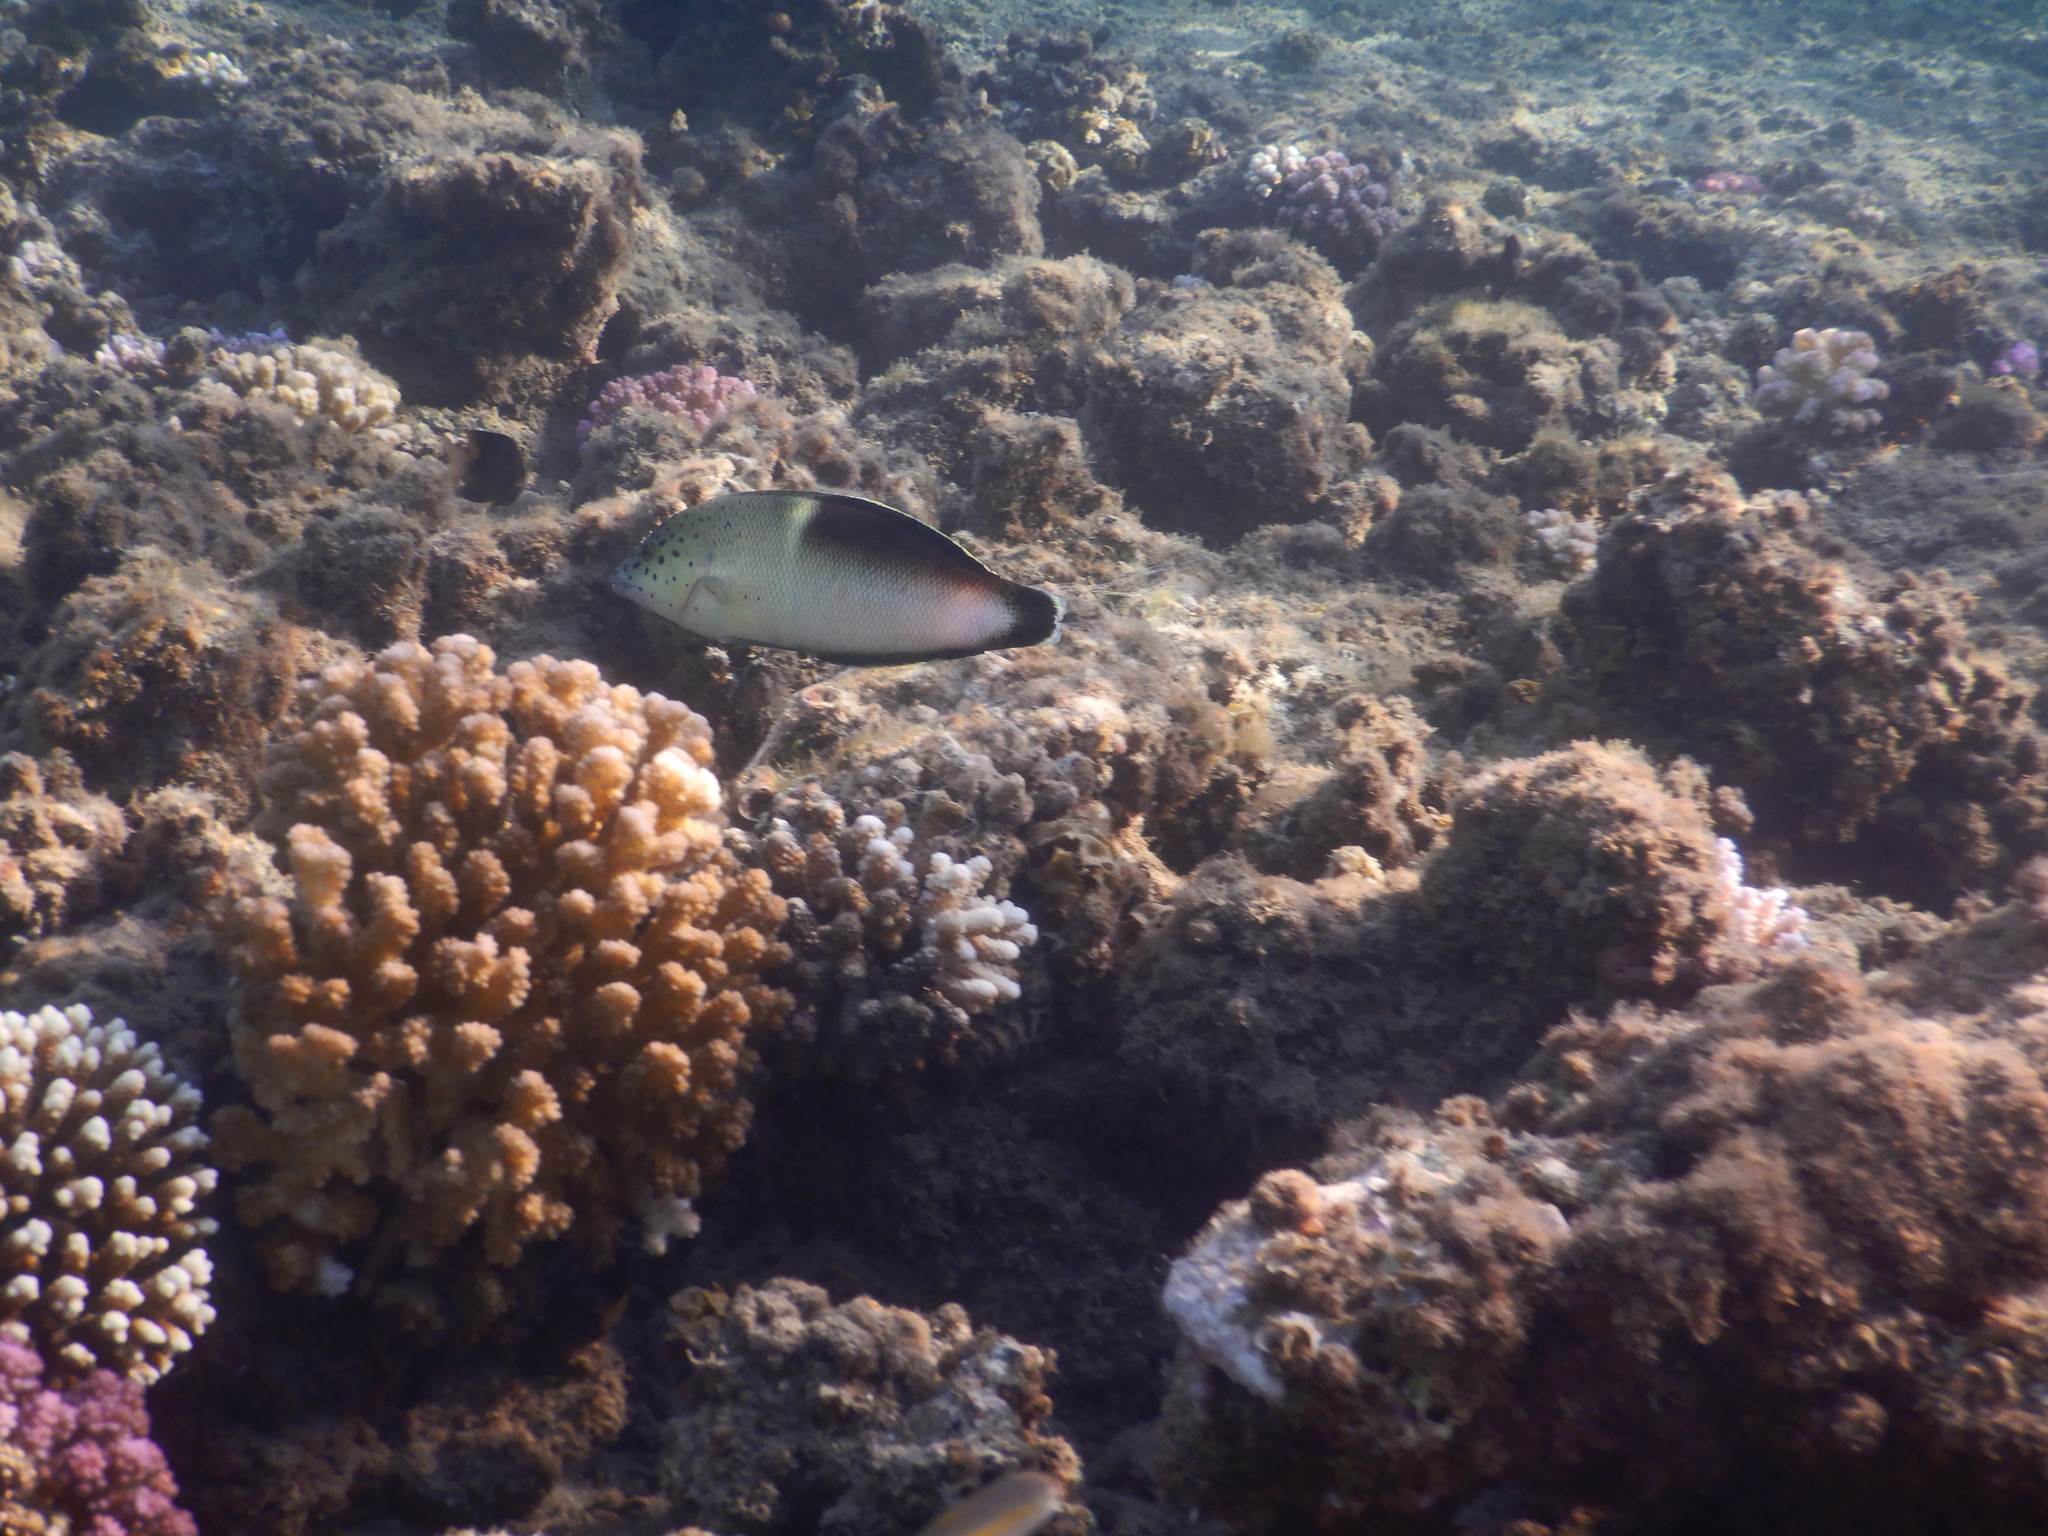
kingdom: Animalia
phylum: Chordata
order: Perciformes
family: Labridae
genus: Coris
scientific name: Coris aygula
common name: Clown coris
